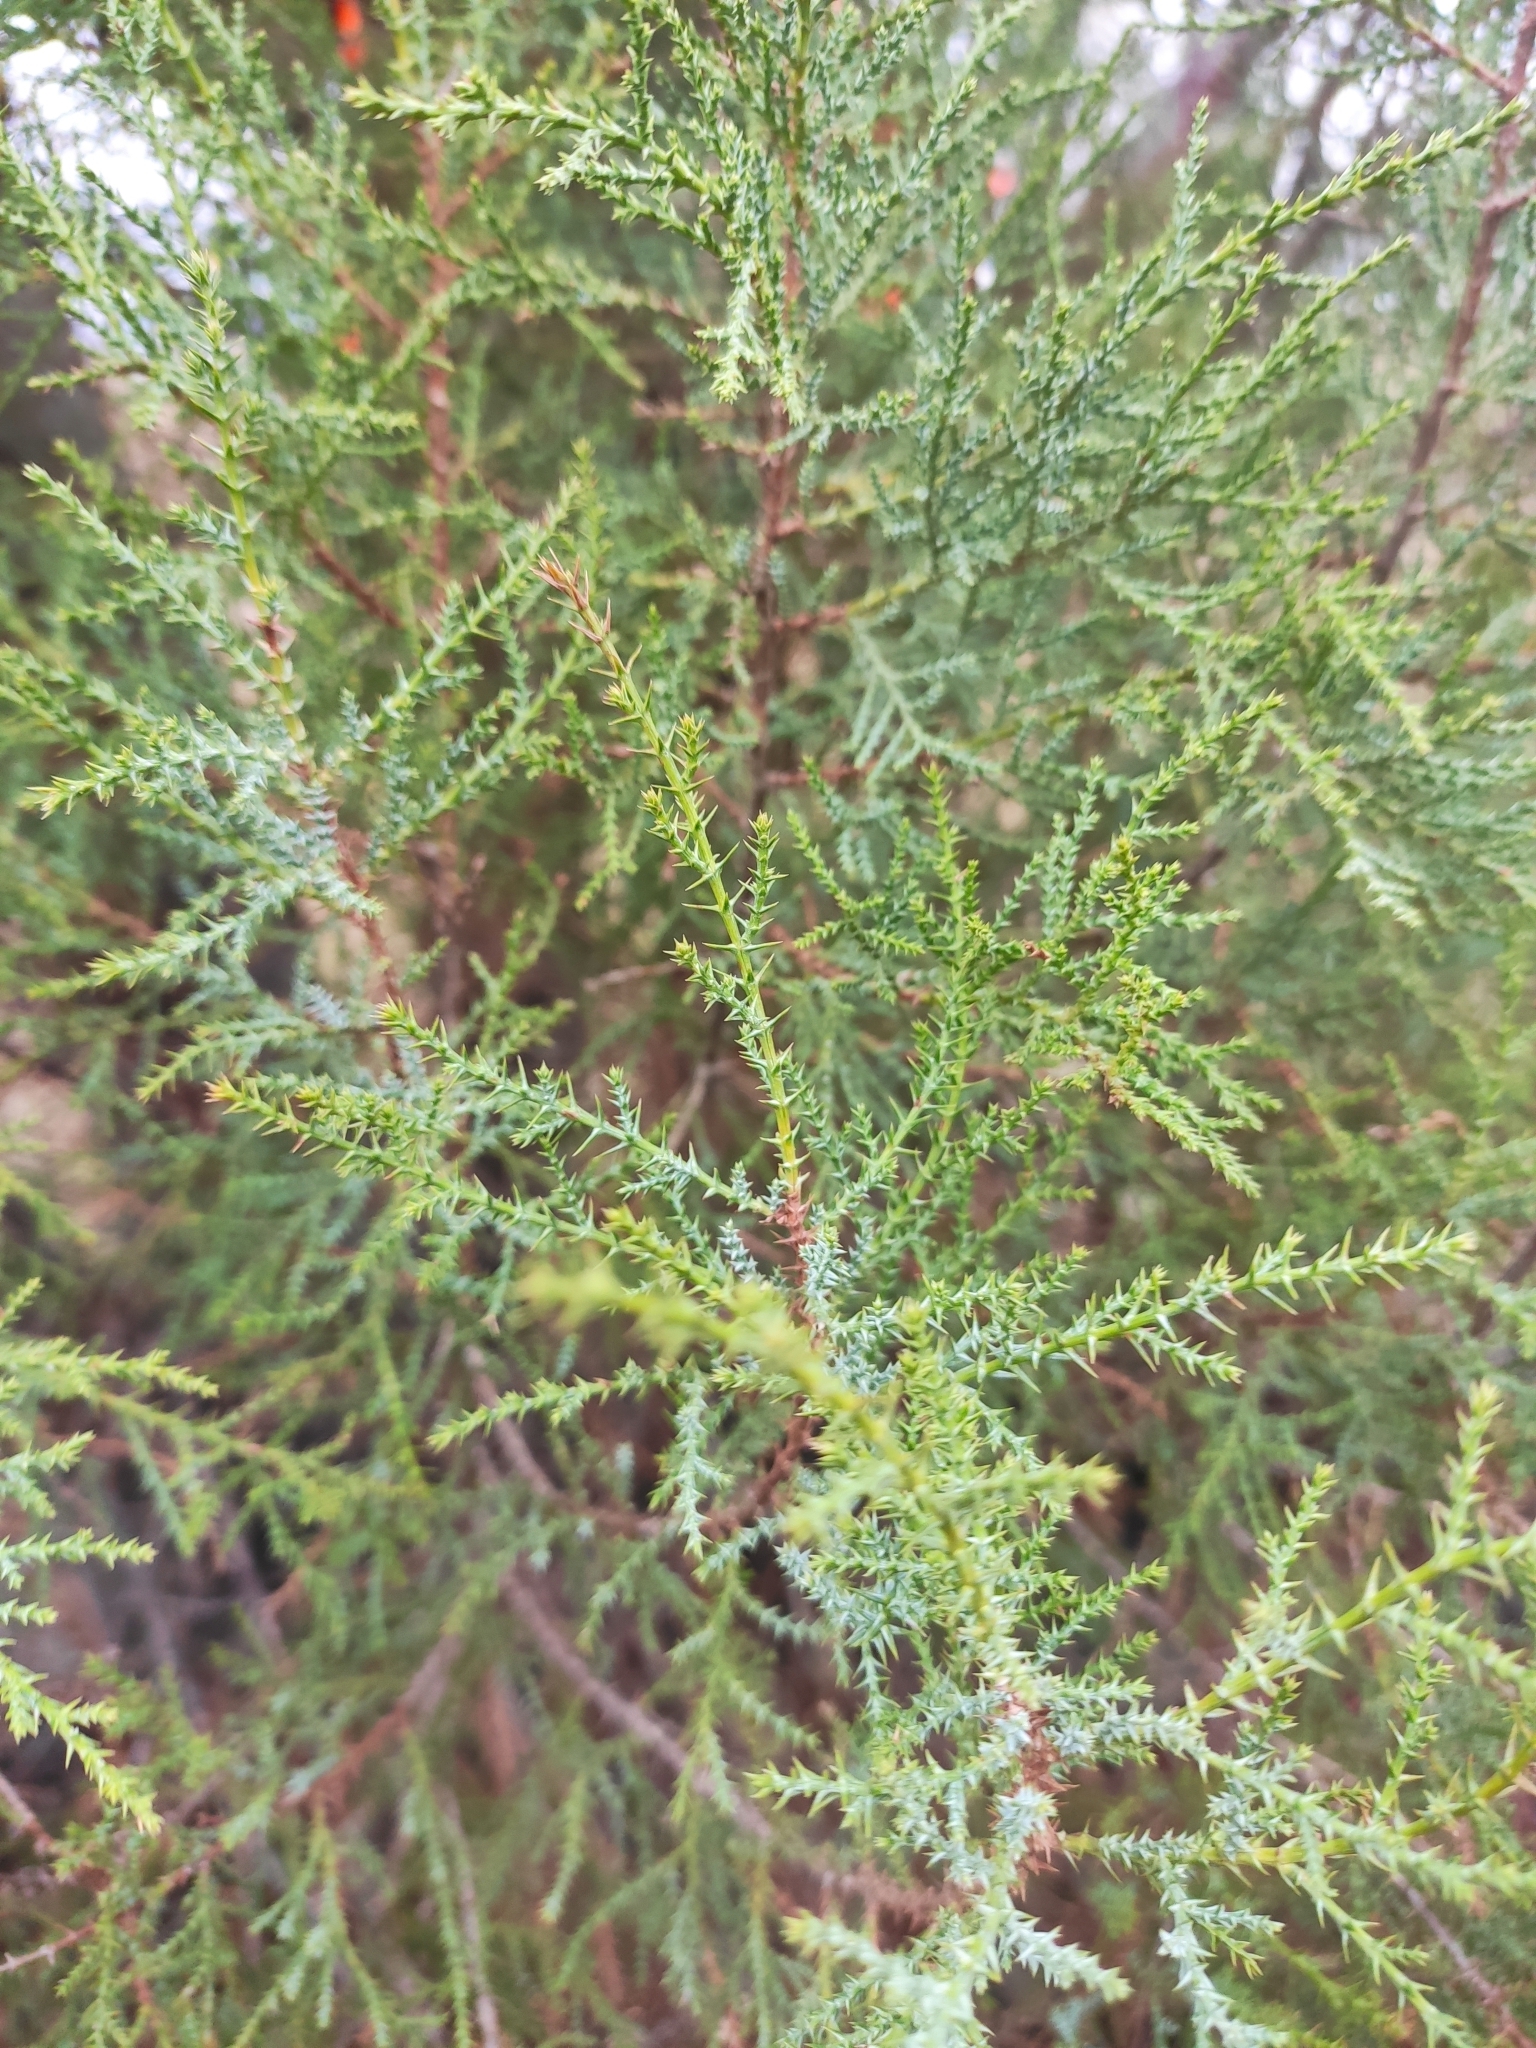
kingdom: Plantae
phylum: Tracheophyta
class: Pinopsida
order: Pinales
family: Cupressaceae
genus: Juniperus
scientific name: Juniperus foetidissima
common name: Stinking juniper
